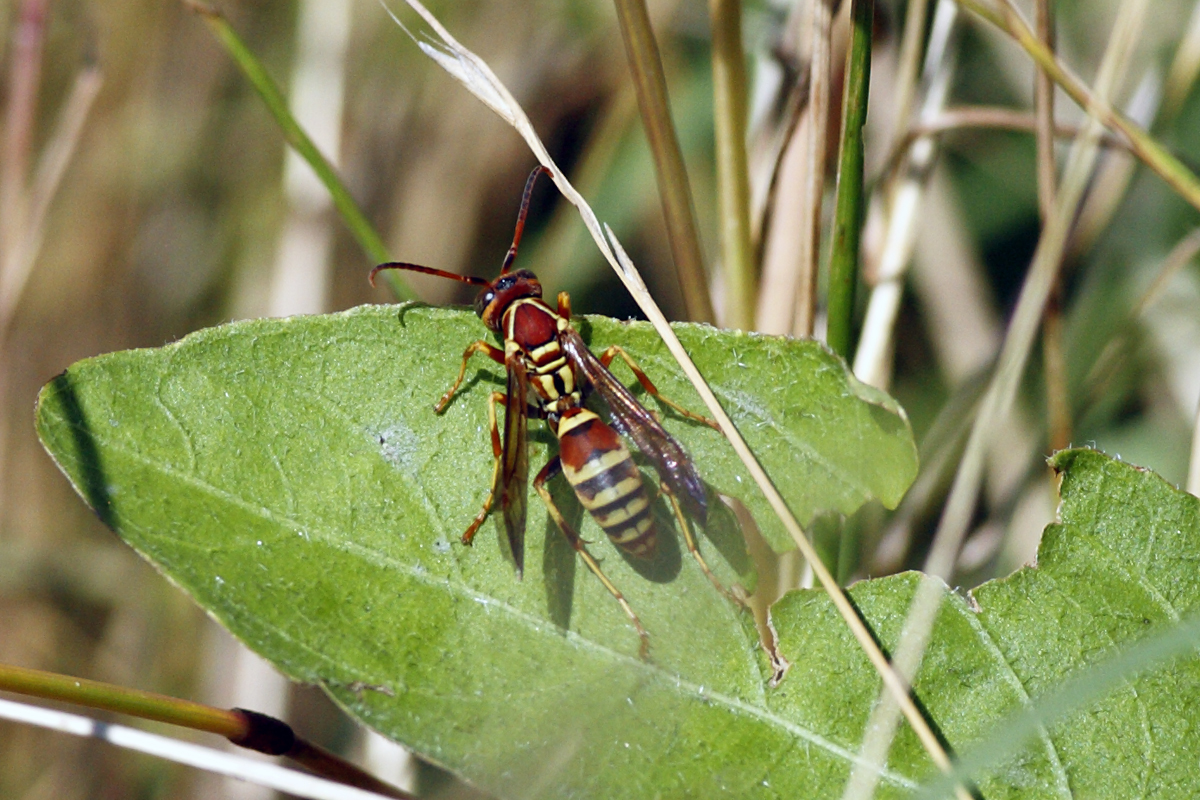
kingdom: Animalia
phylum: Arthropoda
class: Insecta
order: Hymenoptera
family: Eumenidae
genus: Polistes
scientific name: Polistes dorsalis
